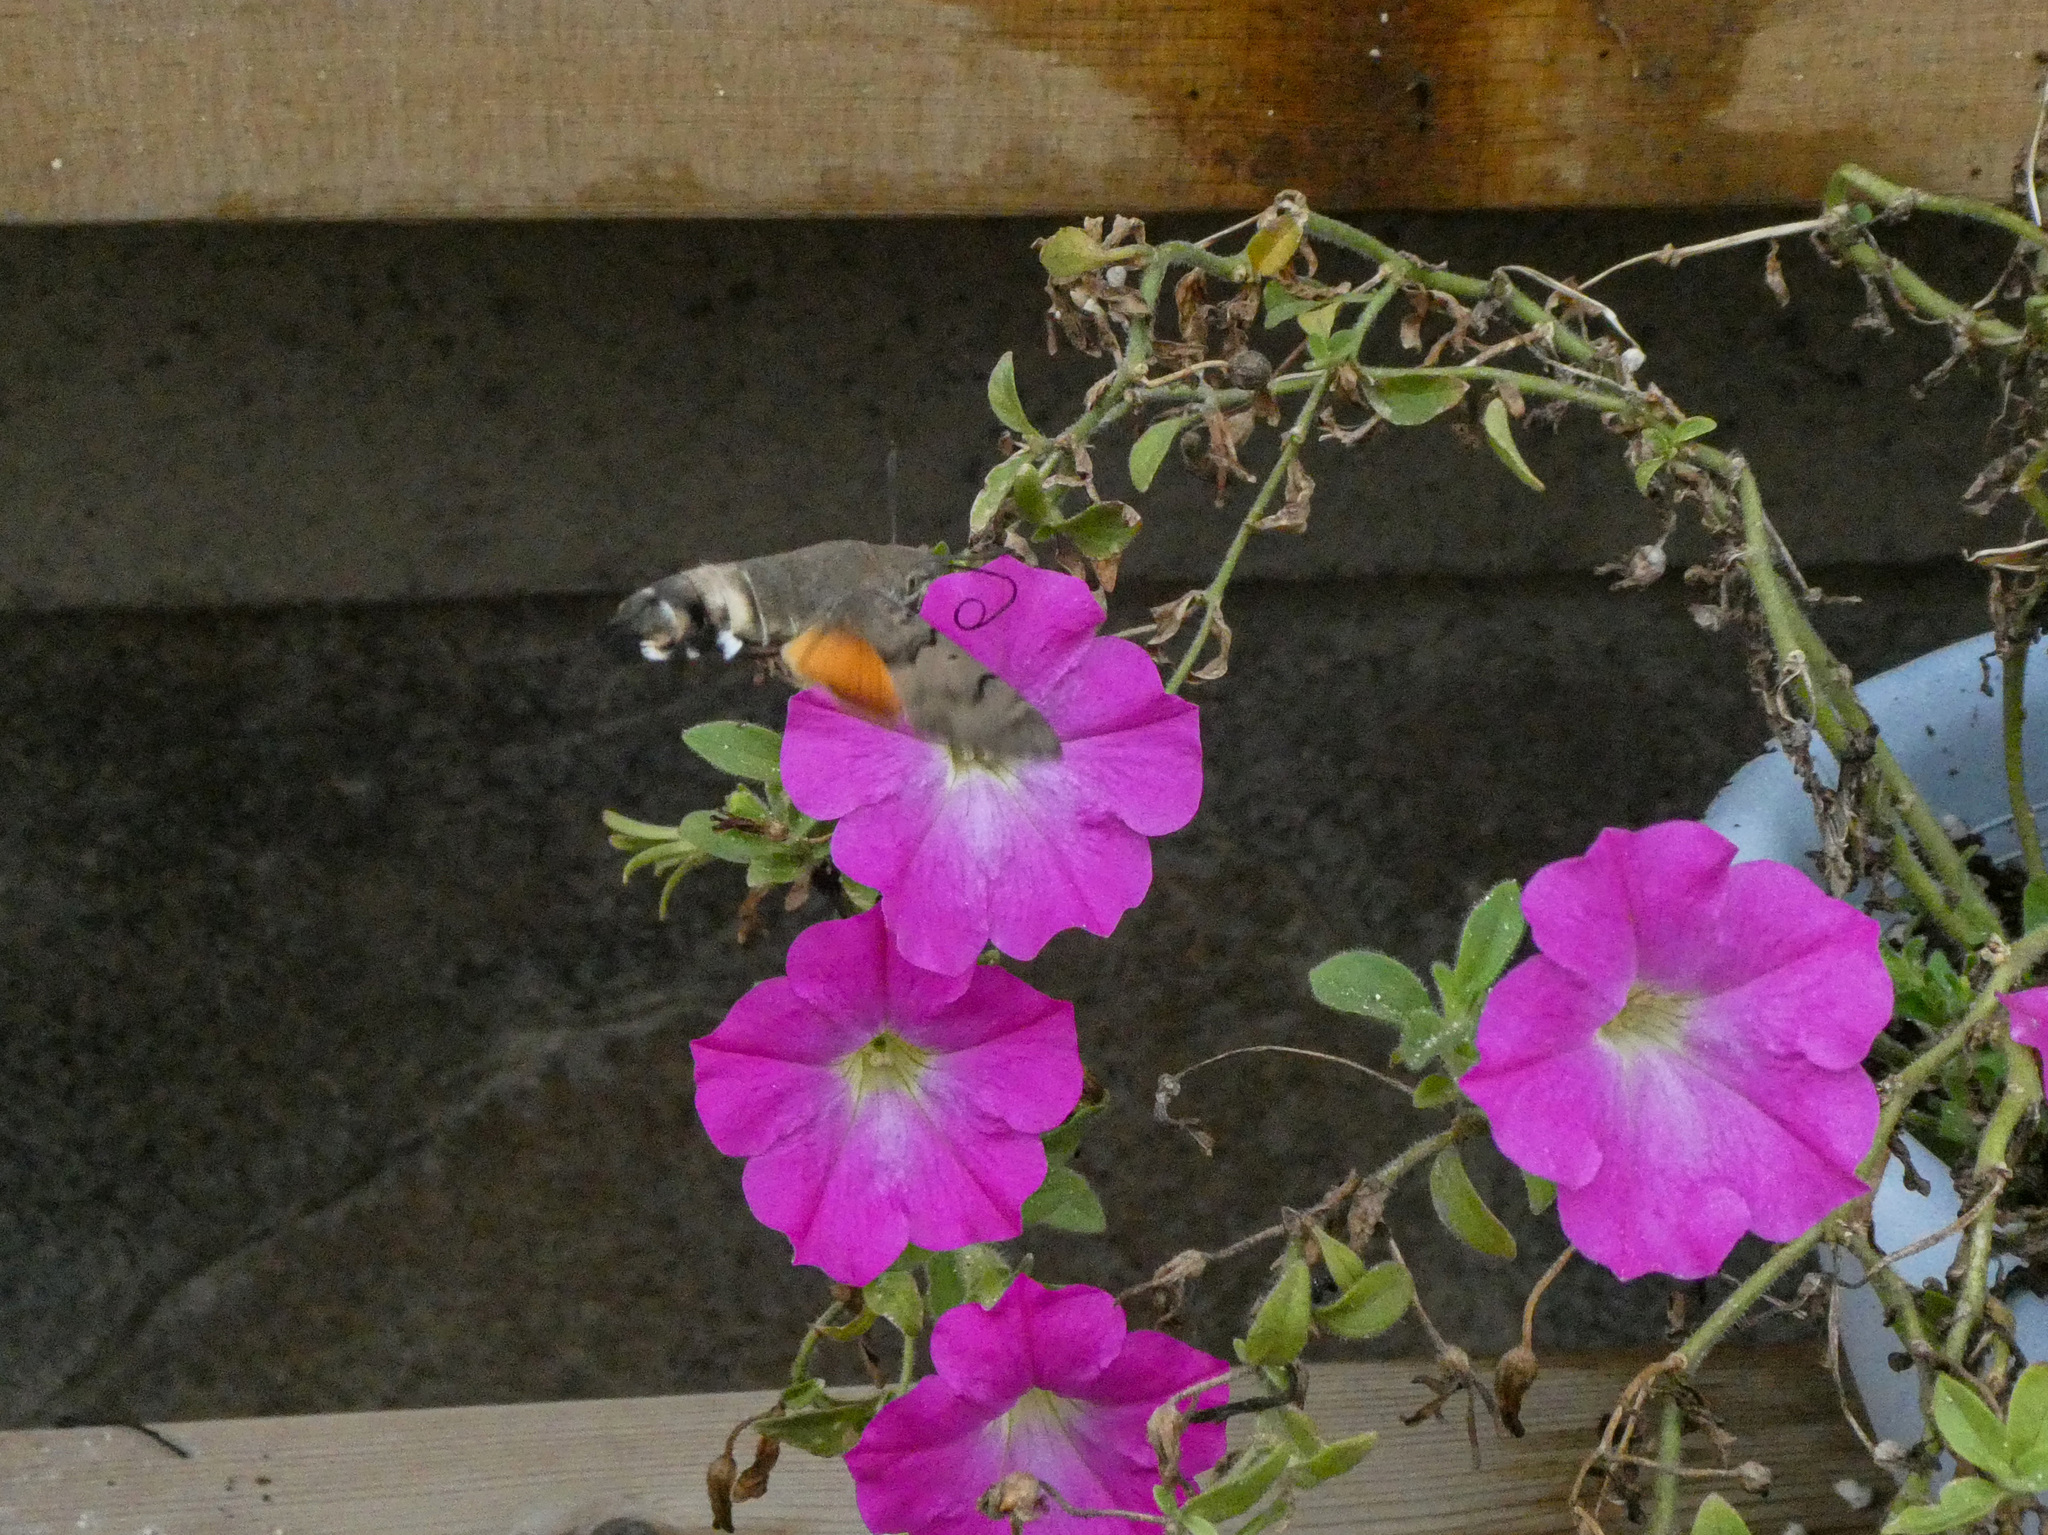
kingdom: Animalia
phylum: Arthropoda
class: Insecta
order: Lepidoptera
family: Sphingidae
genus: Macroglossum
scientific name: Macroglossum stellatarum
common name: Humming-bird hawk-moth
